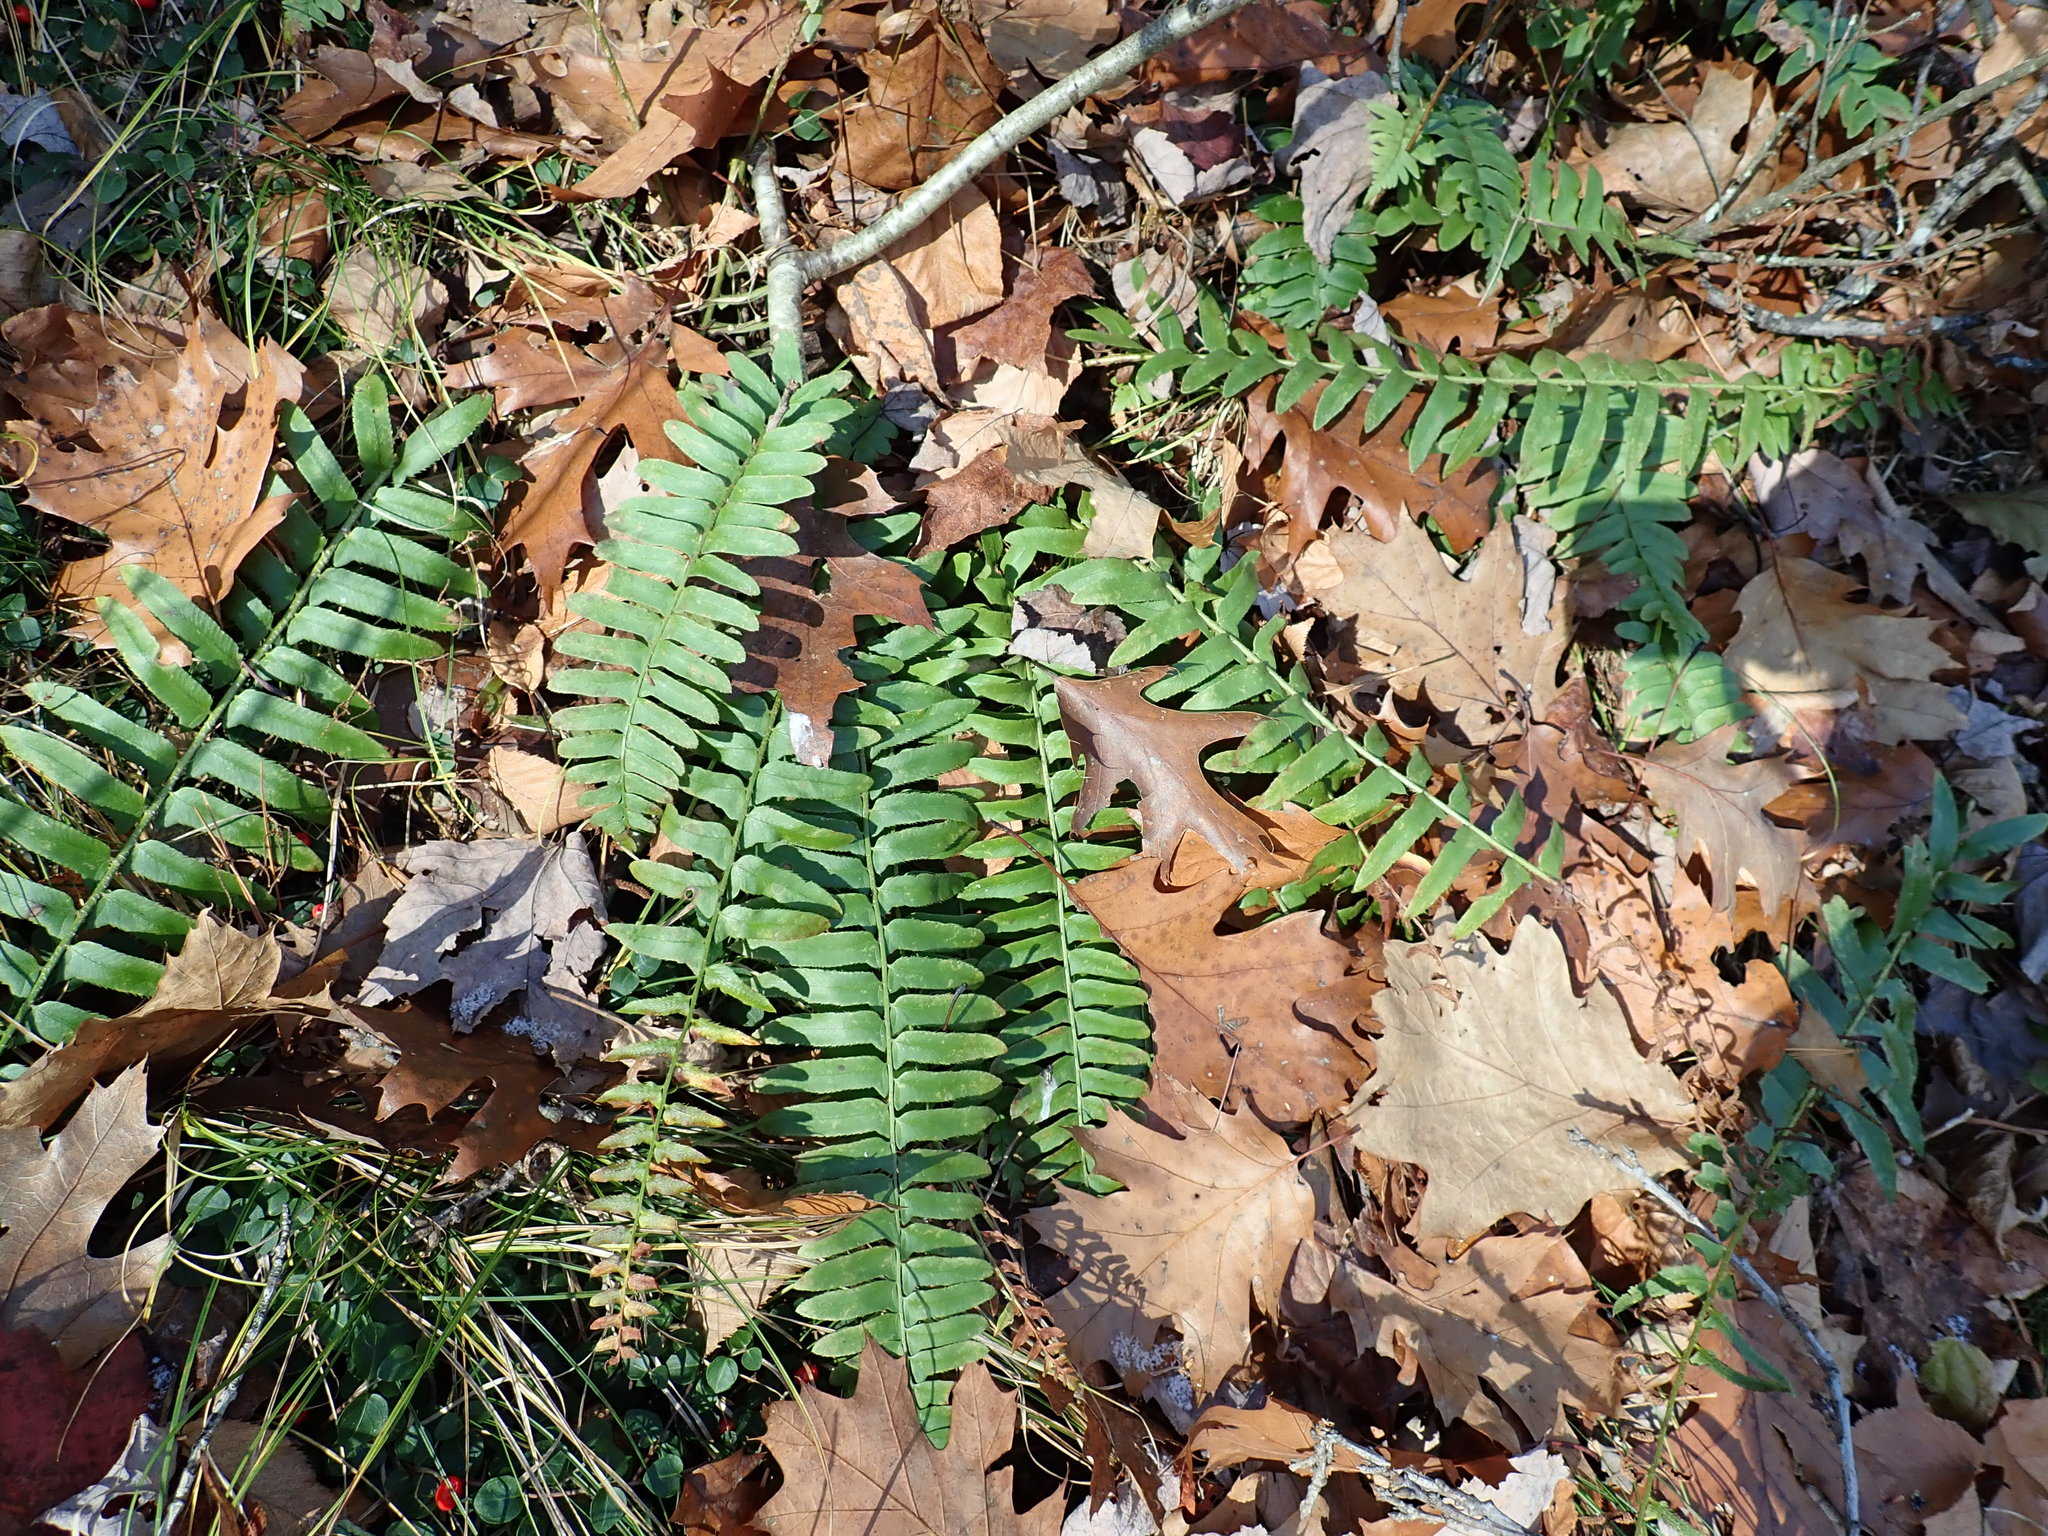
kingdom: Plantae
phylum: Tracheophyta
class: Polypodiopsida
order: Polypodiales
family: Dryopteridaceae
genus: Polystichum
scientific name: Polystichum acrostichoides
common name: Christmas fern
